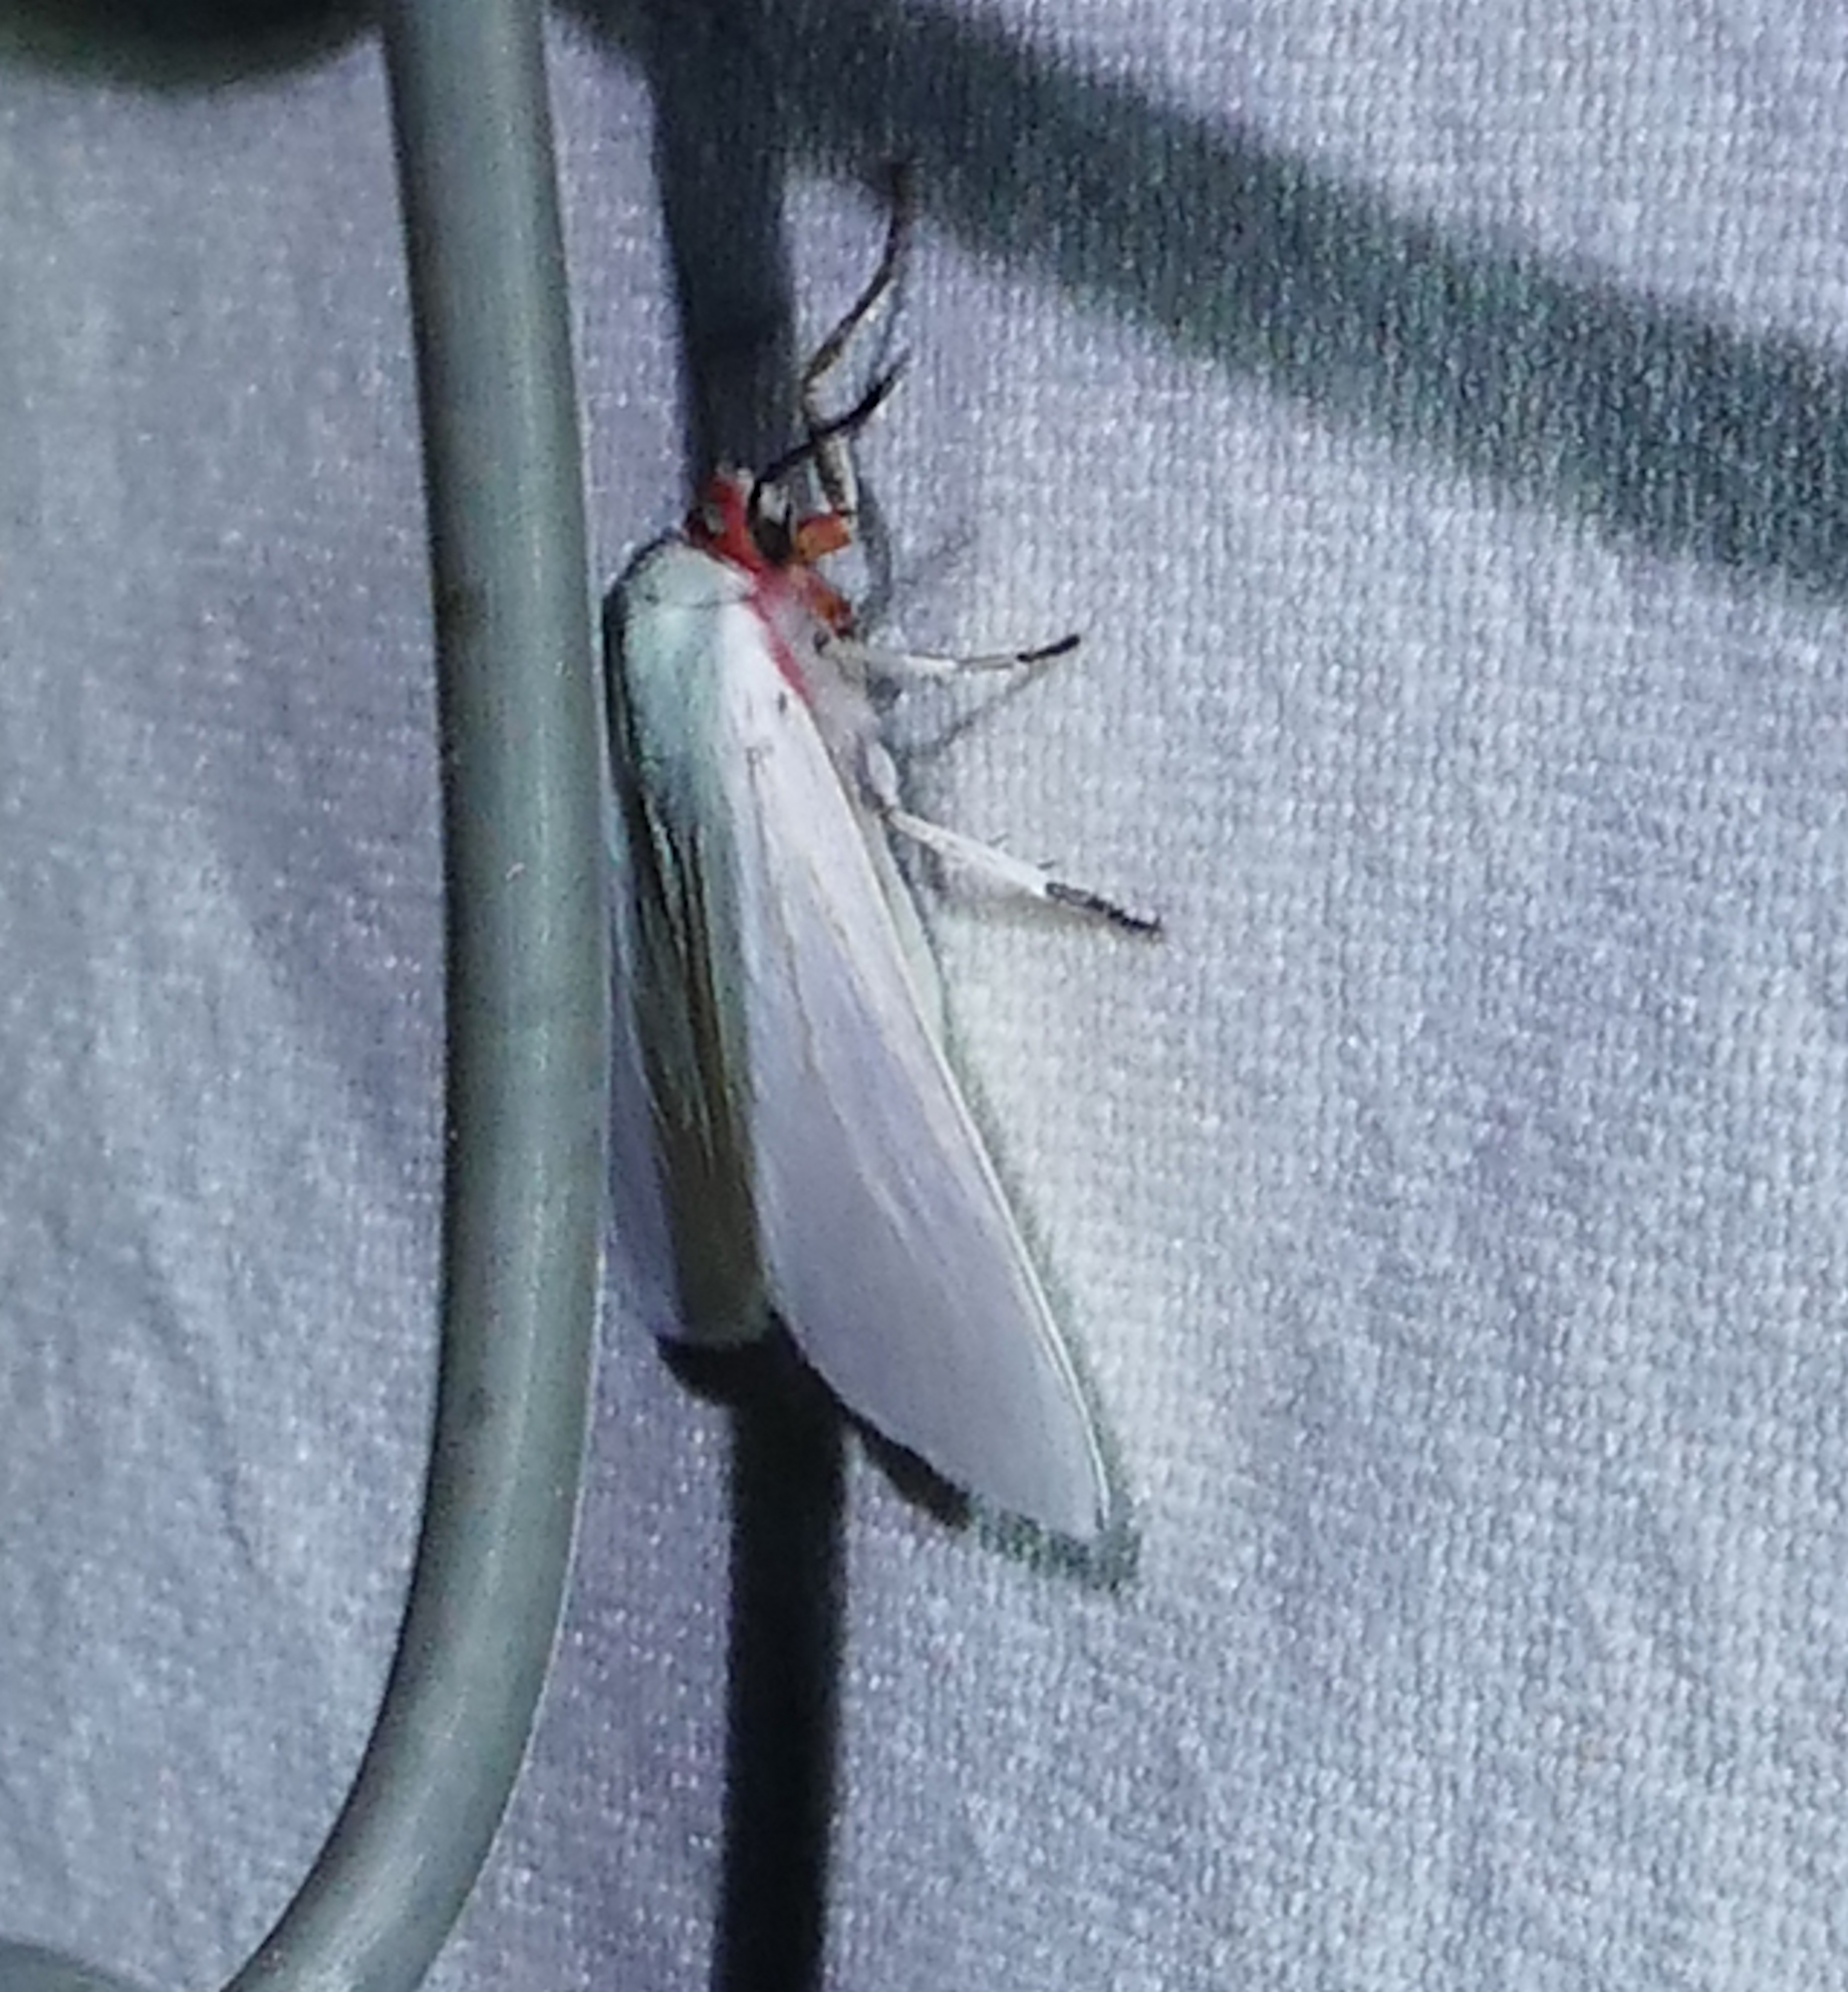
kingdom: Animalia
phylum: Arthropoda
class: Insecta
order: Lepidoptera
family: Erebidae
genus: Pygarctia
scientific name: Pygarctia roseicapitis
